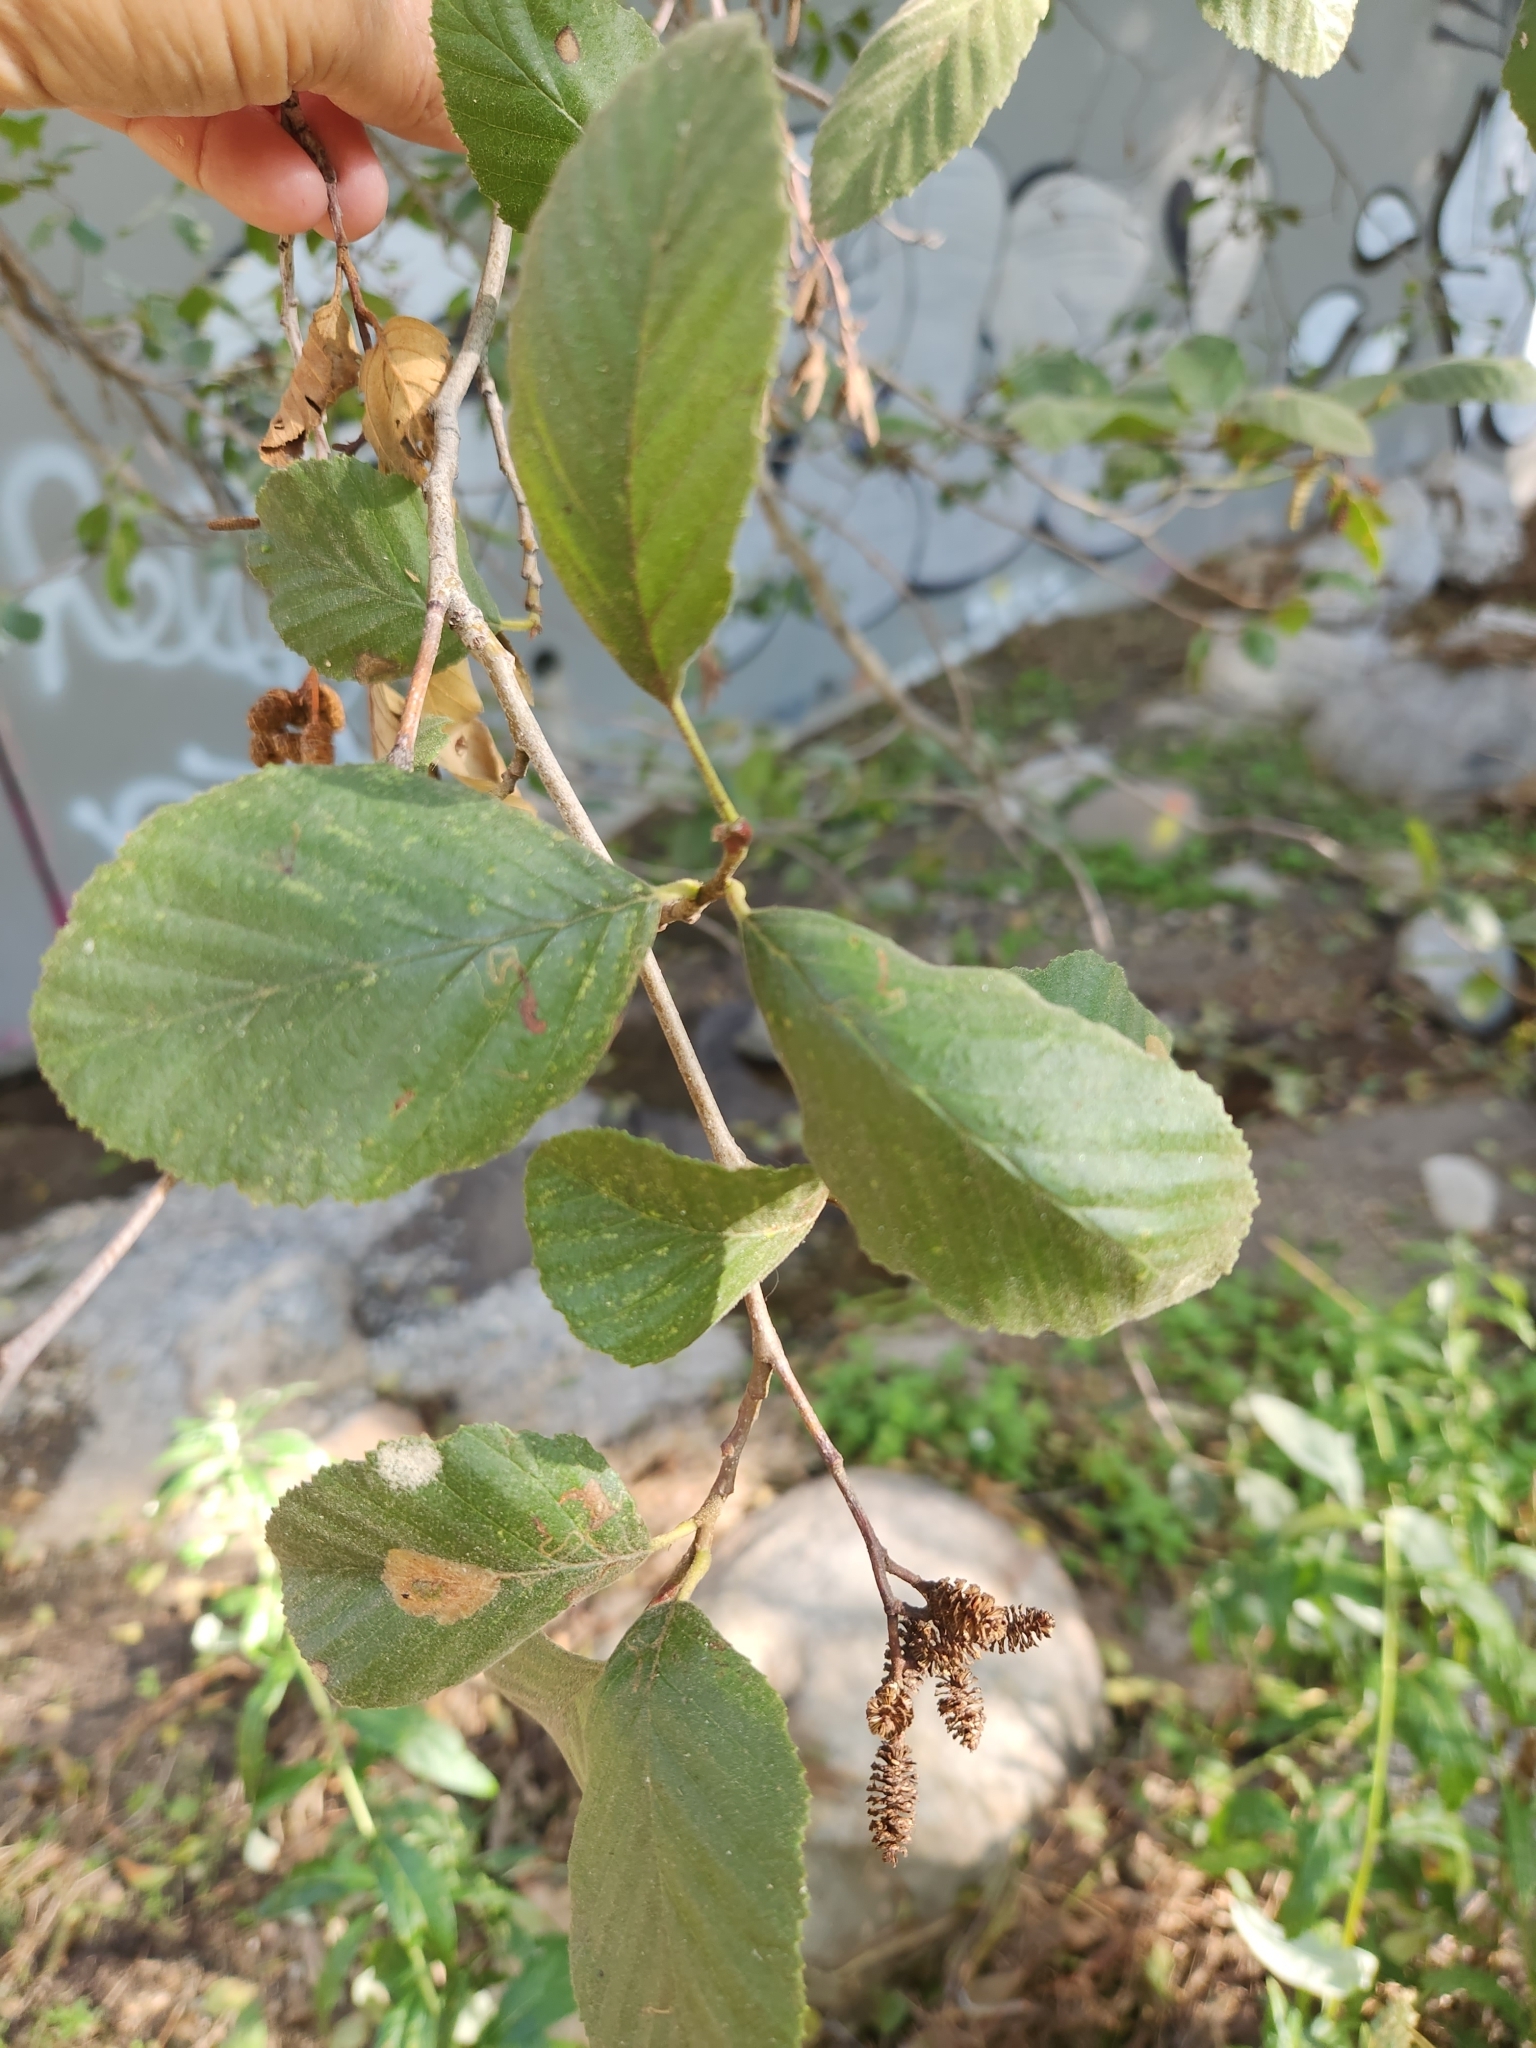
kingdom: Plantae
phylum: Tracheophyta
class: Magnoliopsida
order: Fagales
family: Betulaceae
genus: Alnus
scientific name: Alnus rhombifolia
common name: California alder
